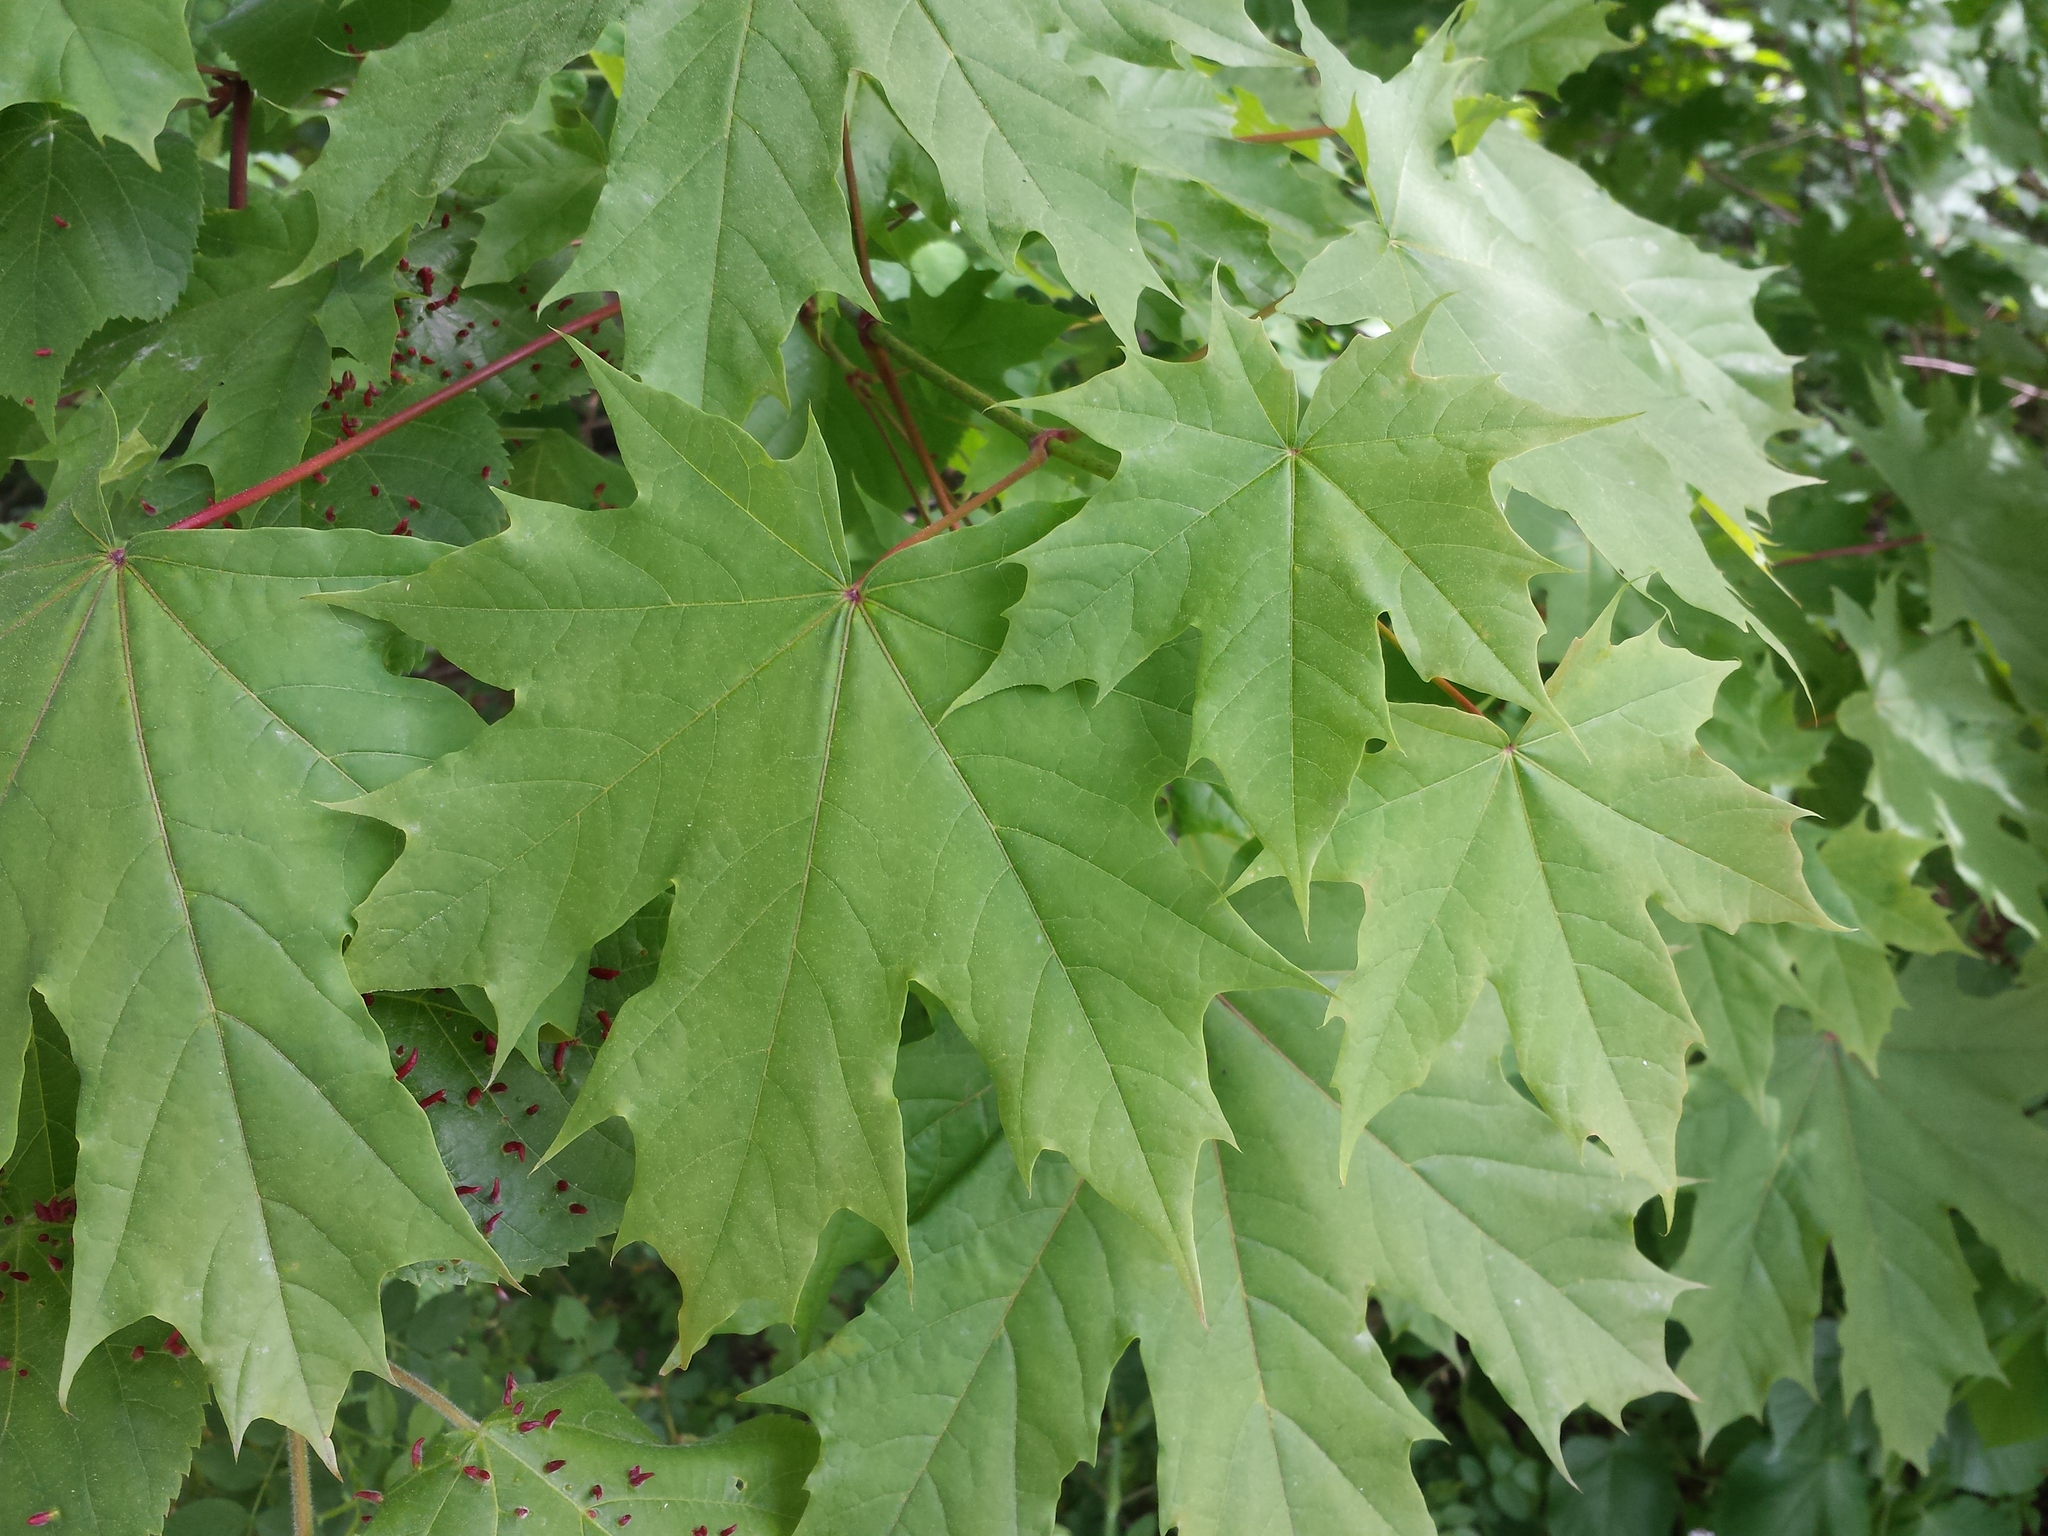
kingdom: Plantae
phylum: Tracheophyta
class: Magnoliopsida
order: Sapindales
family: Sapindaceae
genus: Acer
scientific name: Acer platanoides
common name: Norway maple
